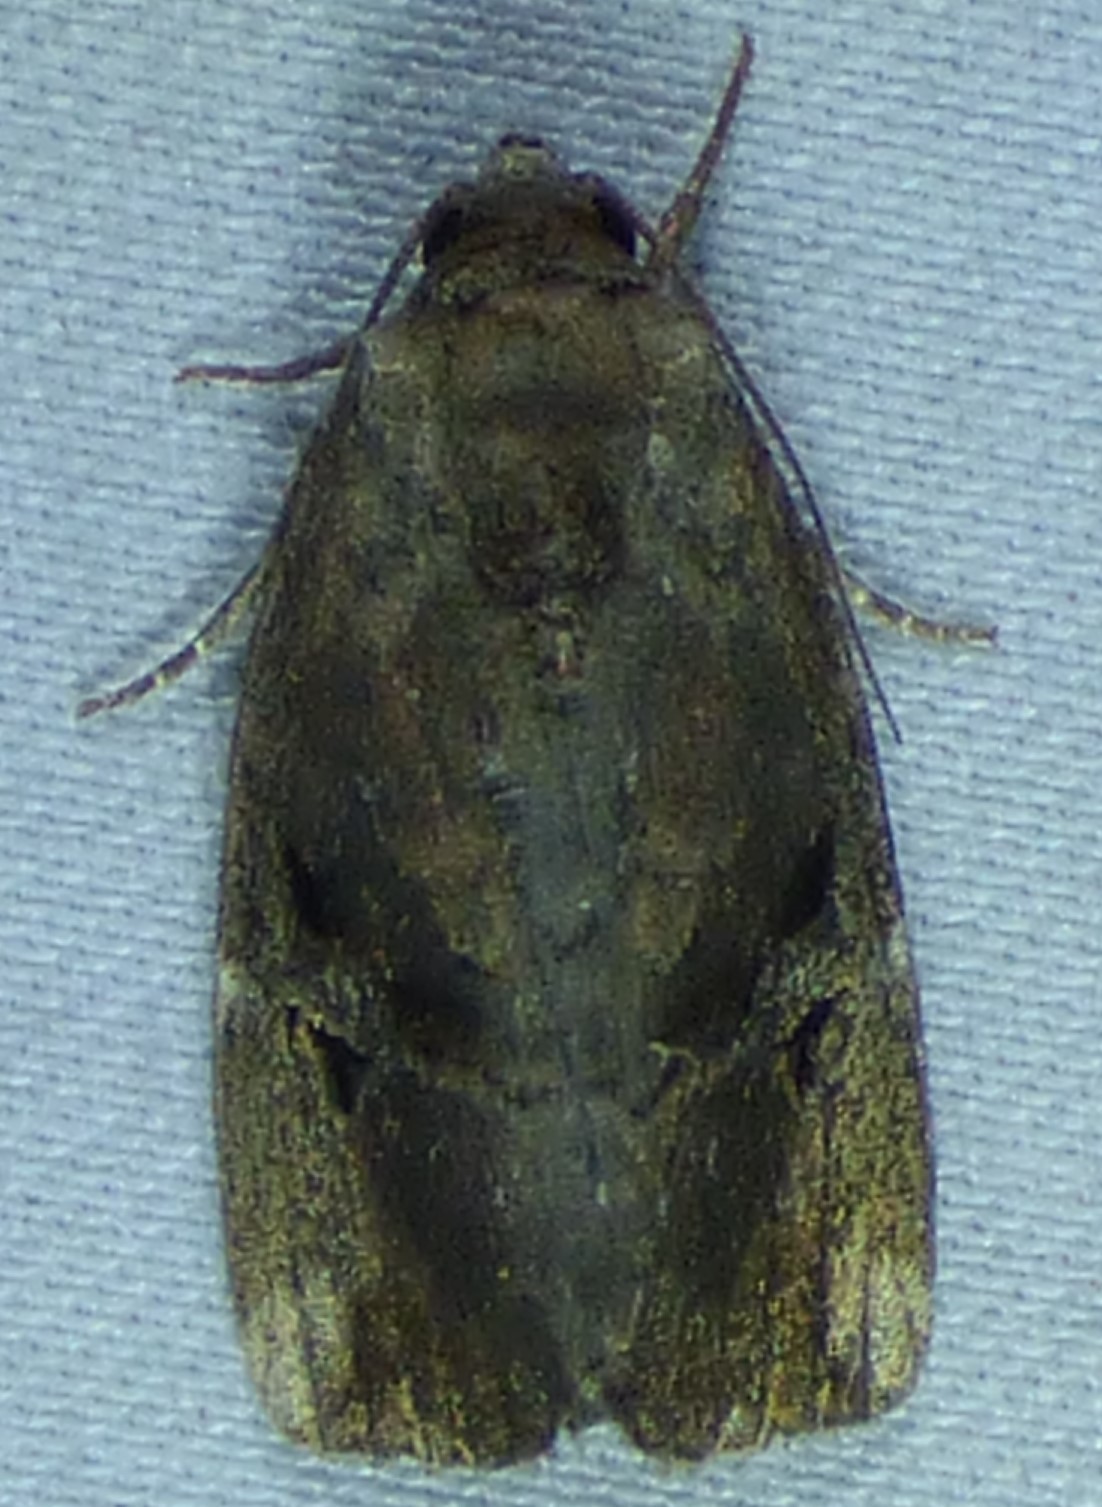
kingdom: Animalia
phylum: Arthropoda
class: Insecta
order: Lepidoptera
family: Noctuidae
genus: Elaphria
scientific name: Elaphria versicolor
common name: Fir harlequin
